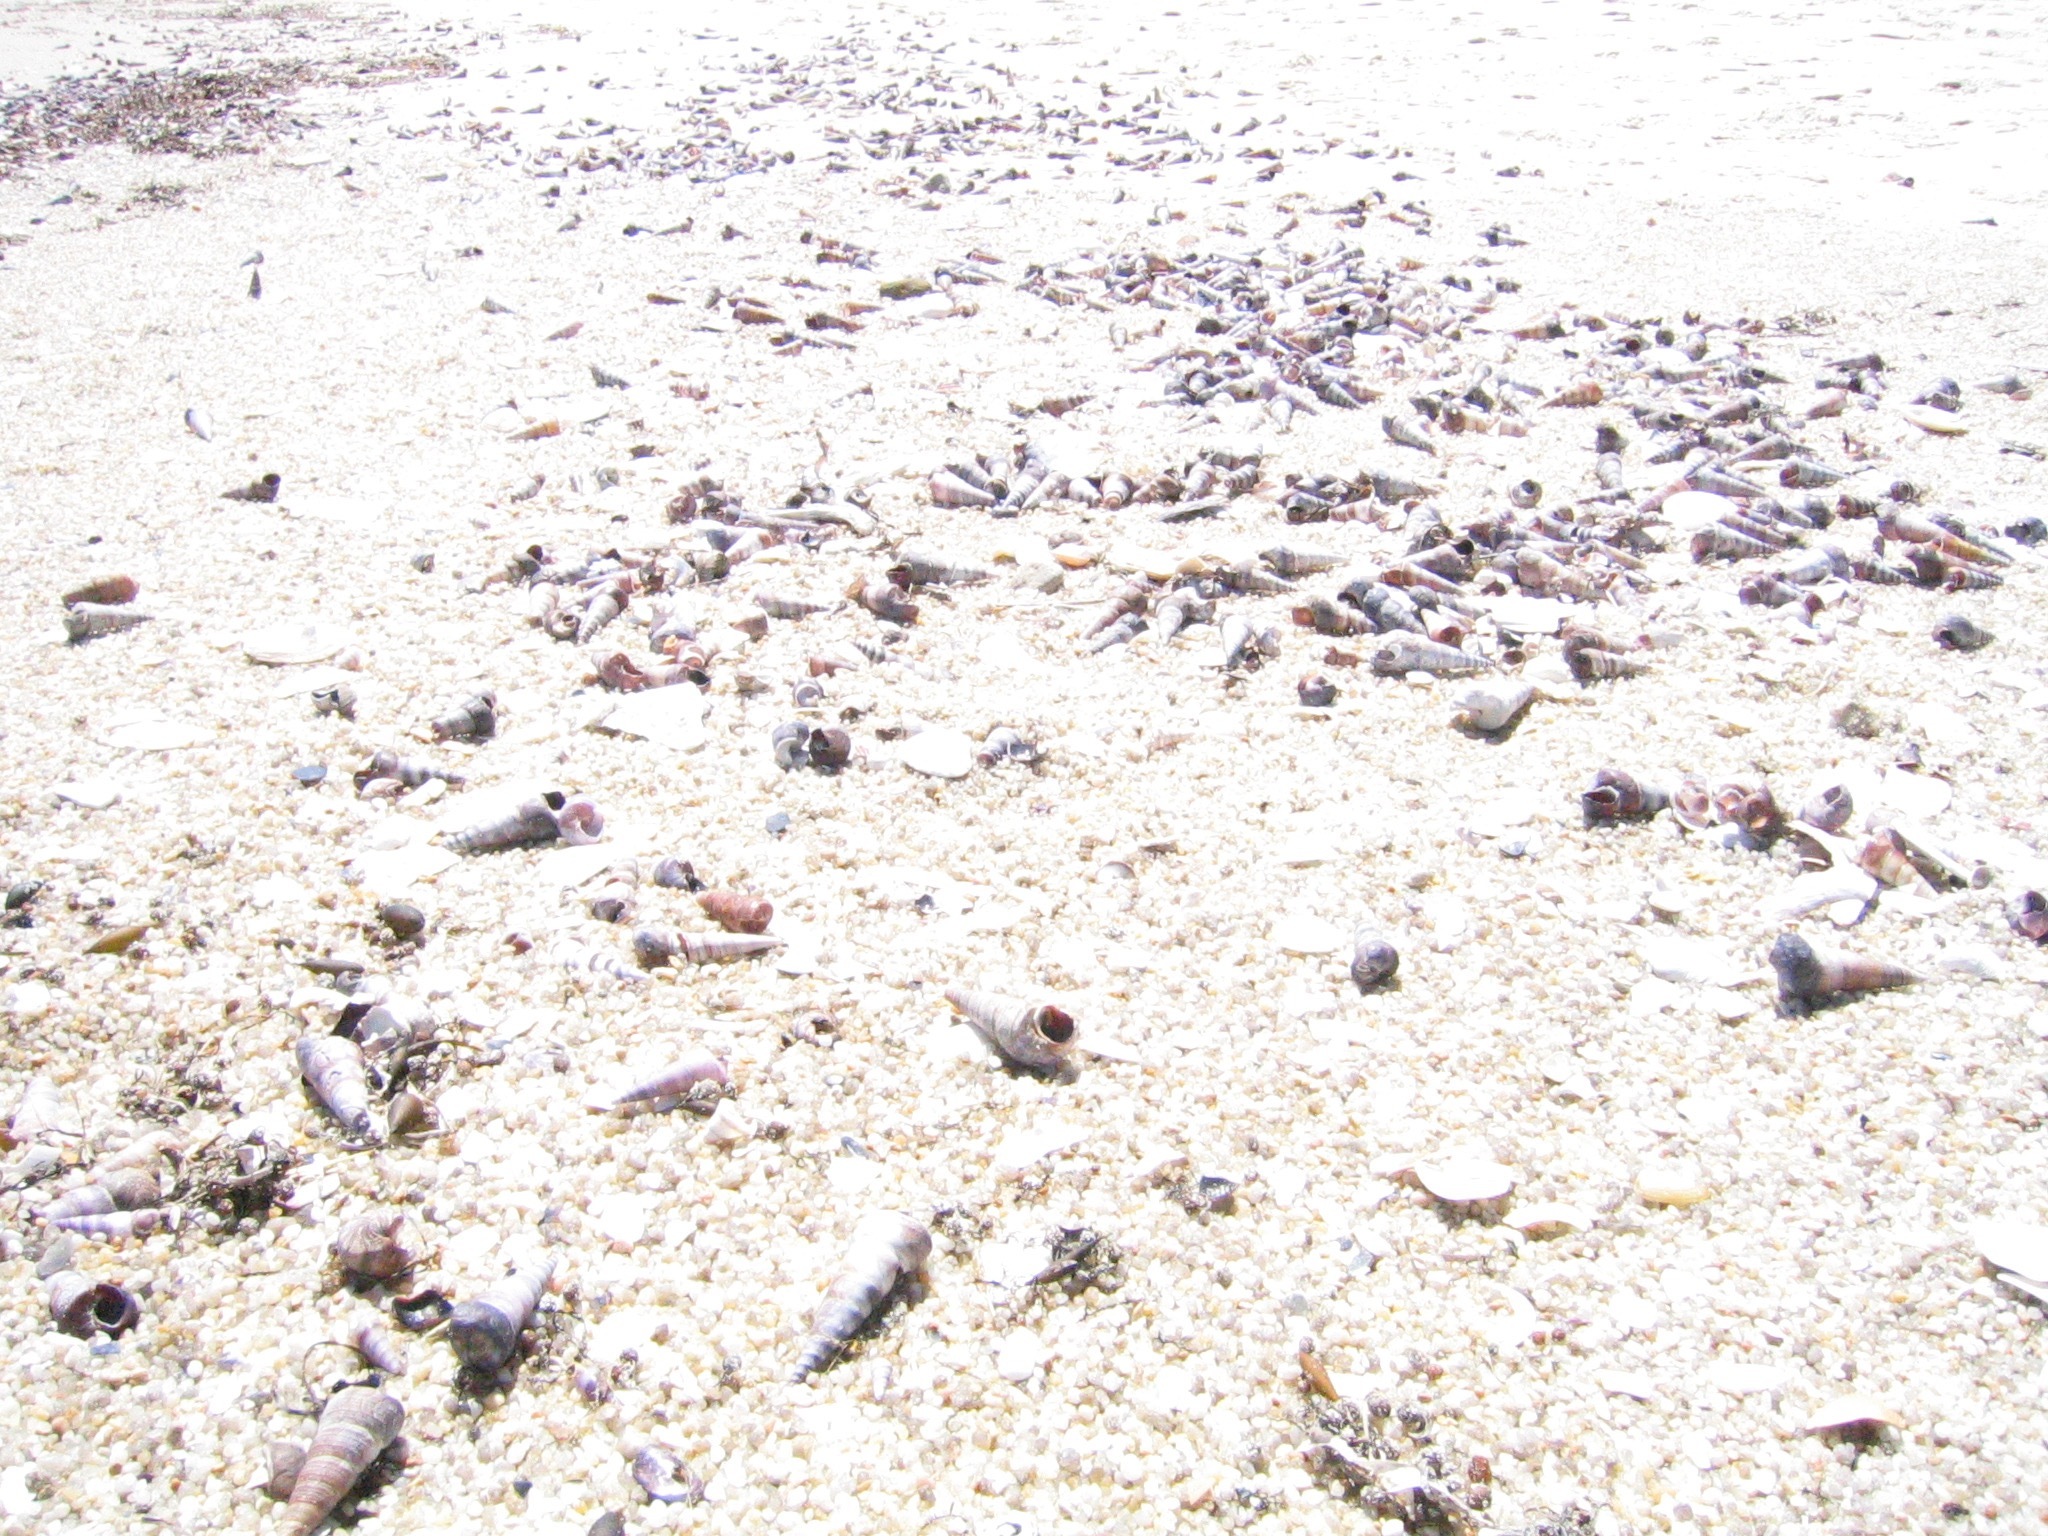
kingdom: Animalia
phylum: Mollusca
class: Gastropoda
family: Turritellidae
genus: Maoricolpus
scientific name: Maoricolpus roseus
